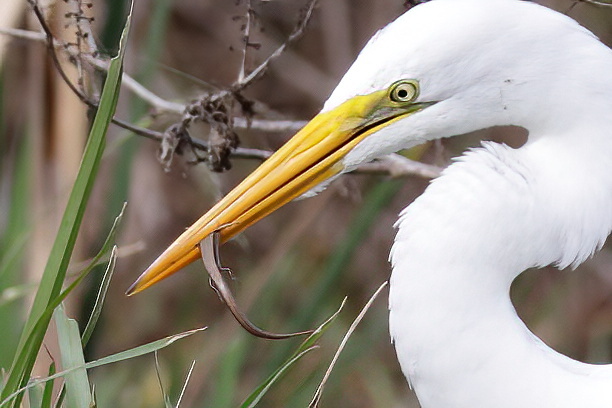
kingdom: Animalia
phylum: Chordata
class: Squamata
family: Scincidae
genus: Scincella
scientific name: Scincella lateralis
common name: Ground skink
